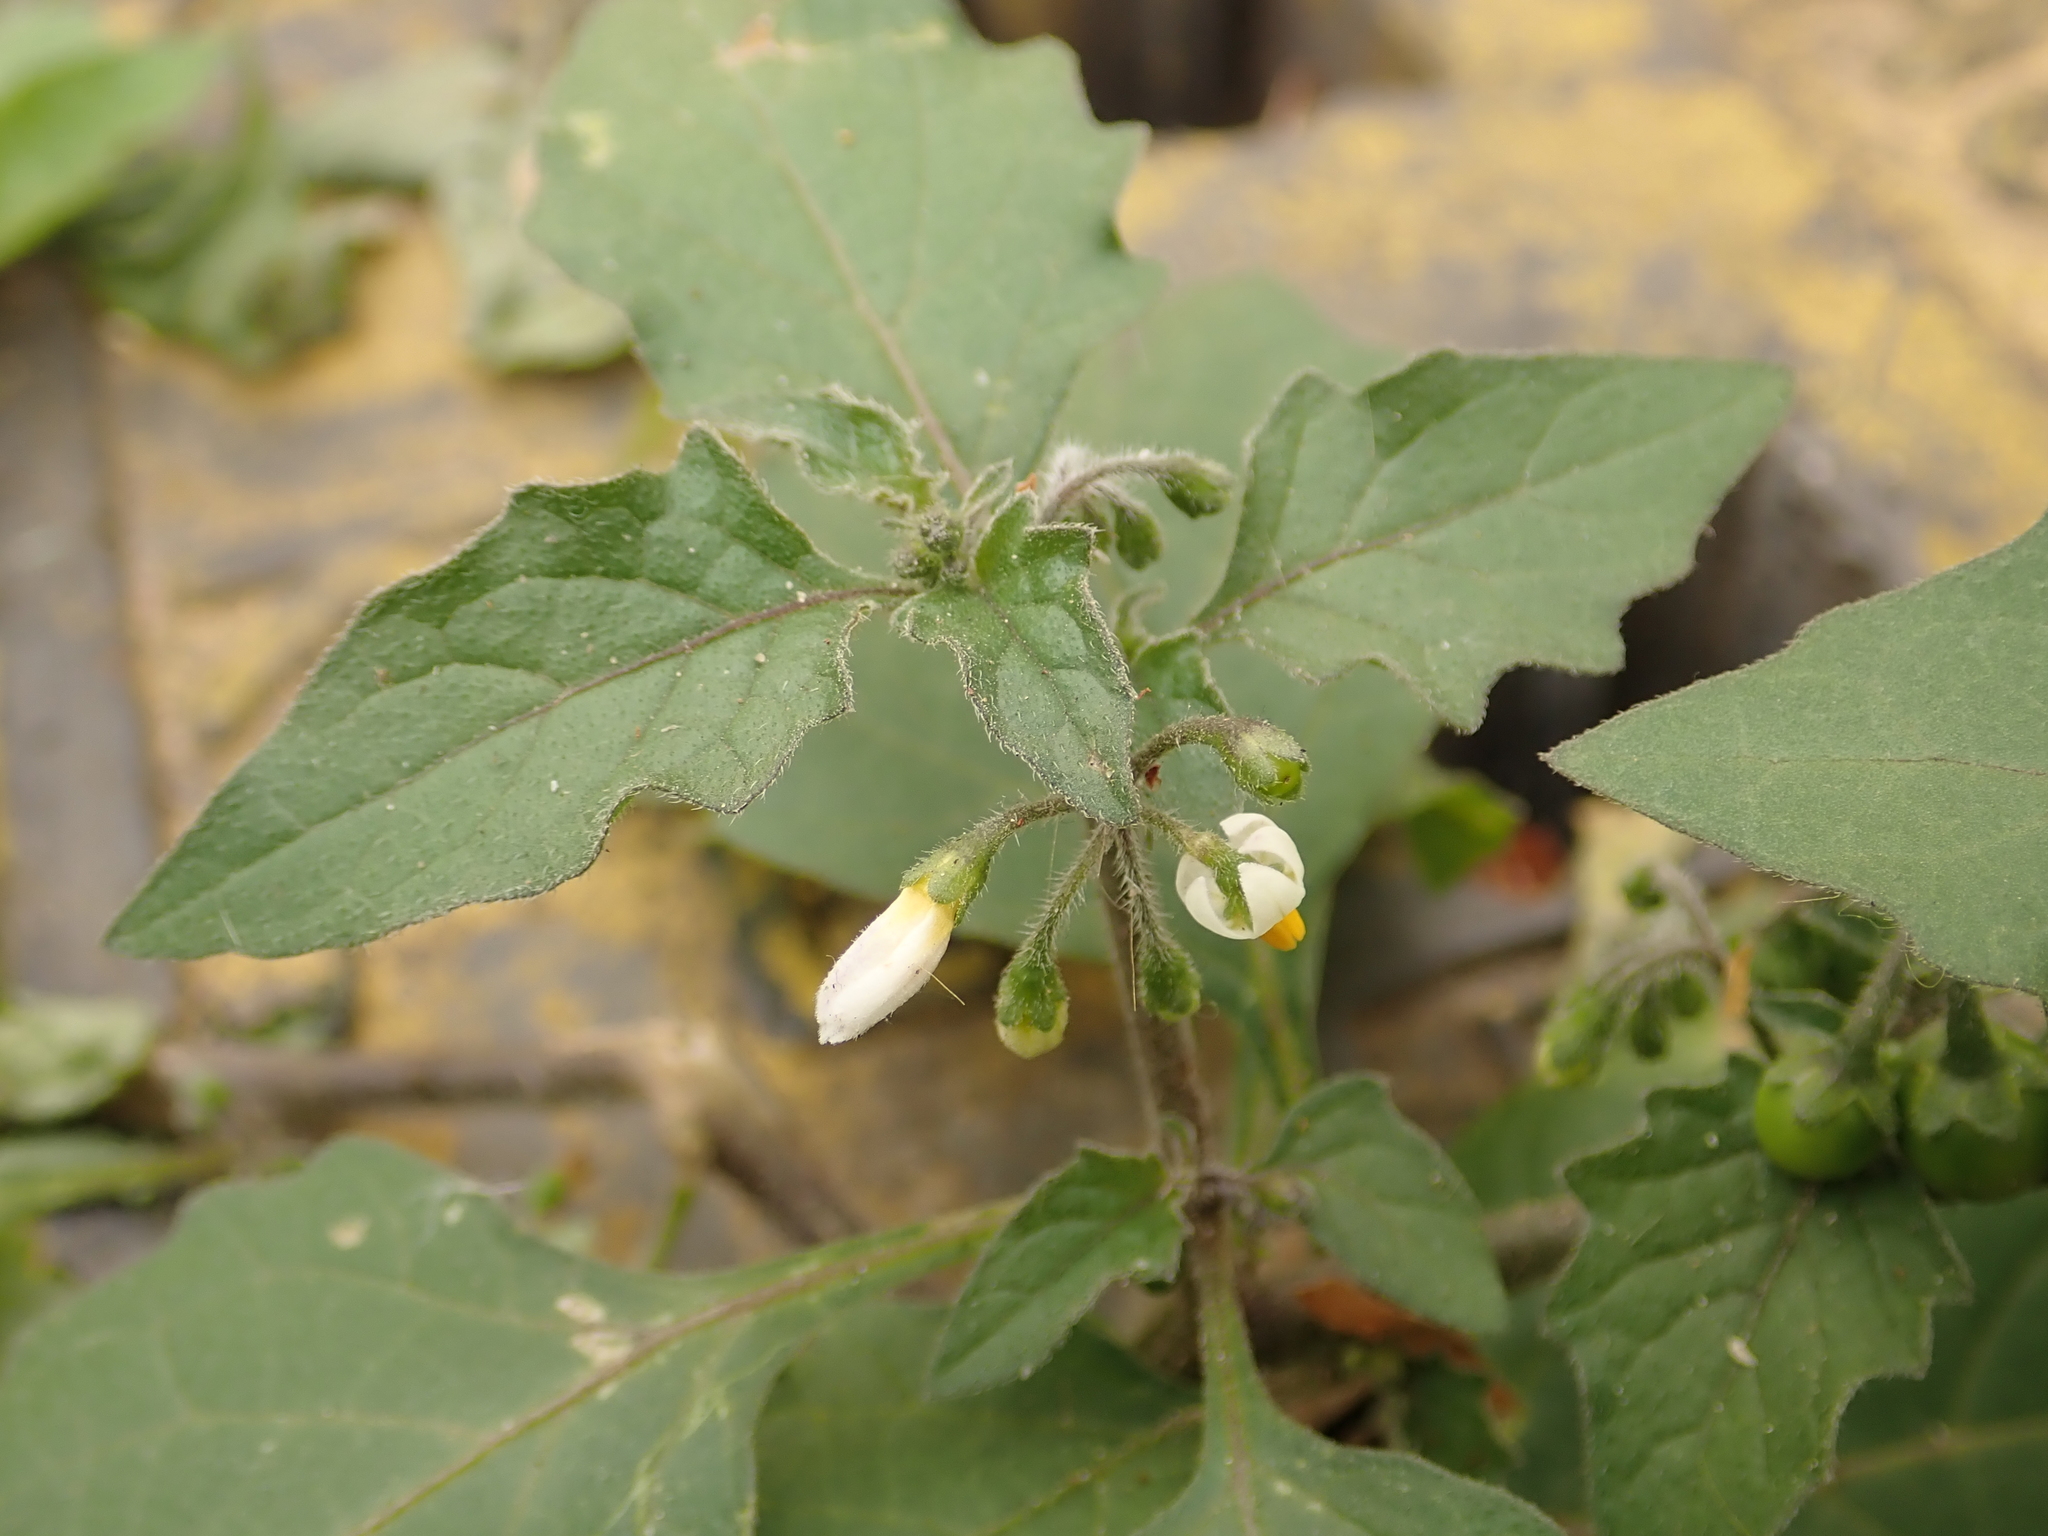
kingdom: Plantae
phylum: Tracheophyta
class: Magnoliopsida
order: Solanales
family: Solanaceae
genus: Solanum
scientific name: Solanum nigrum
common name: Black nightshade
